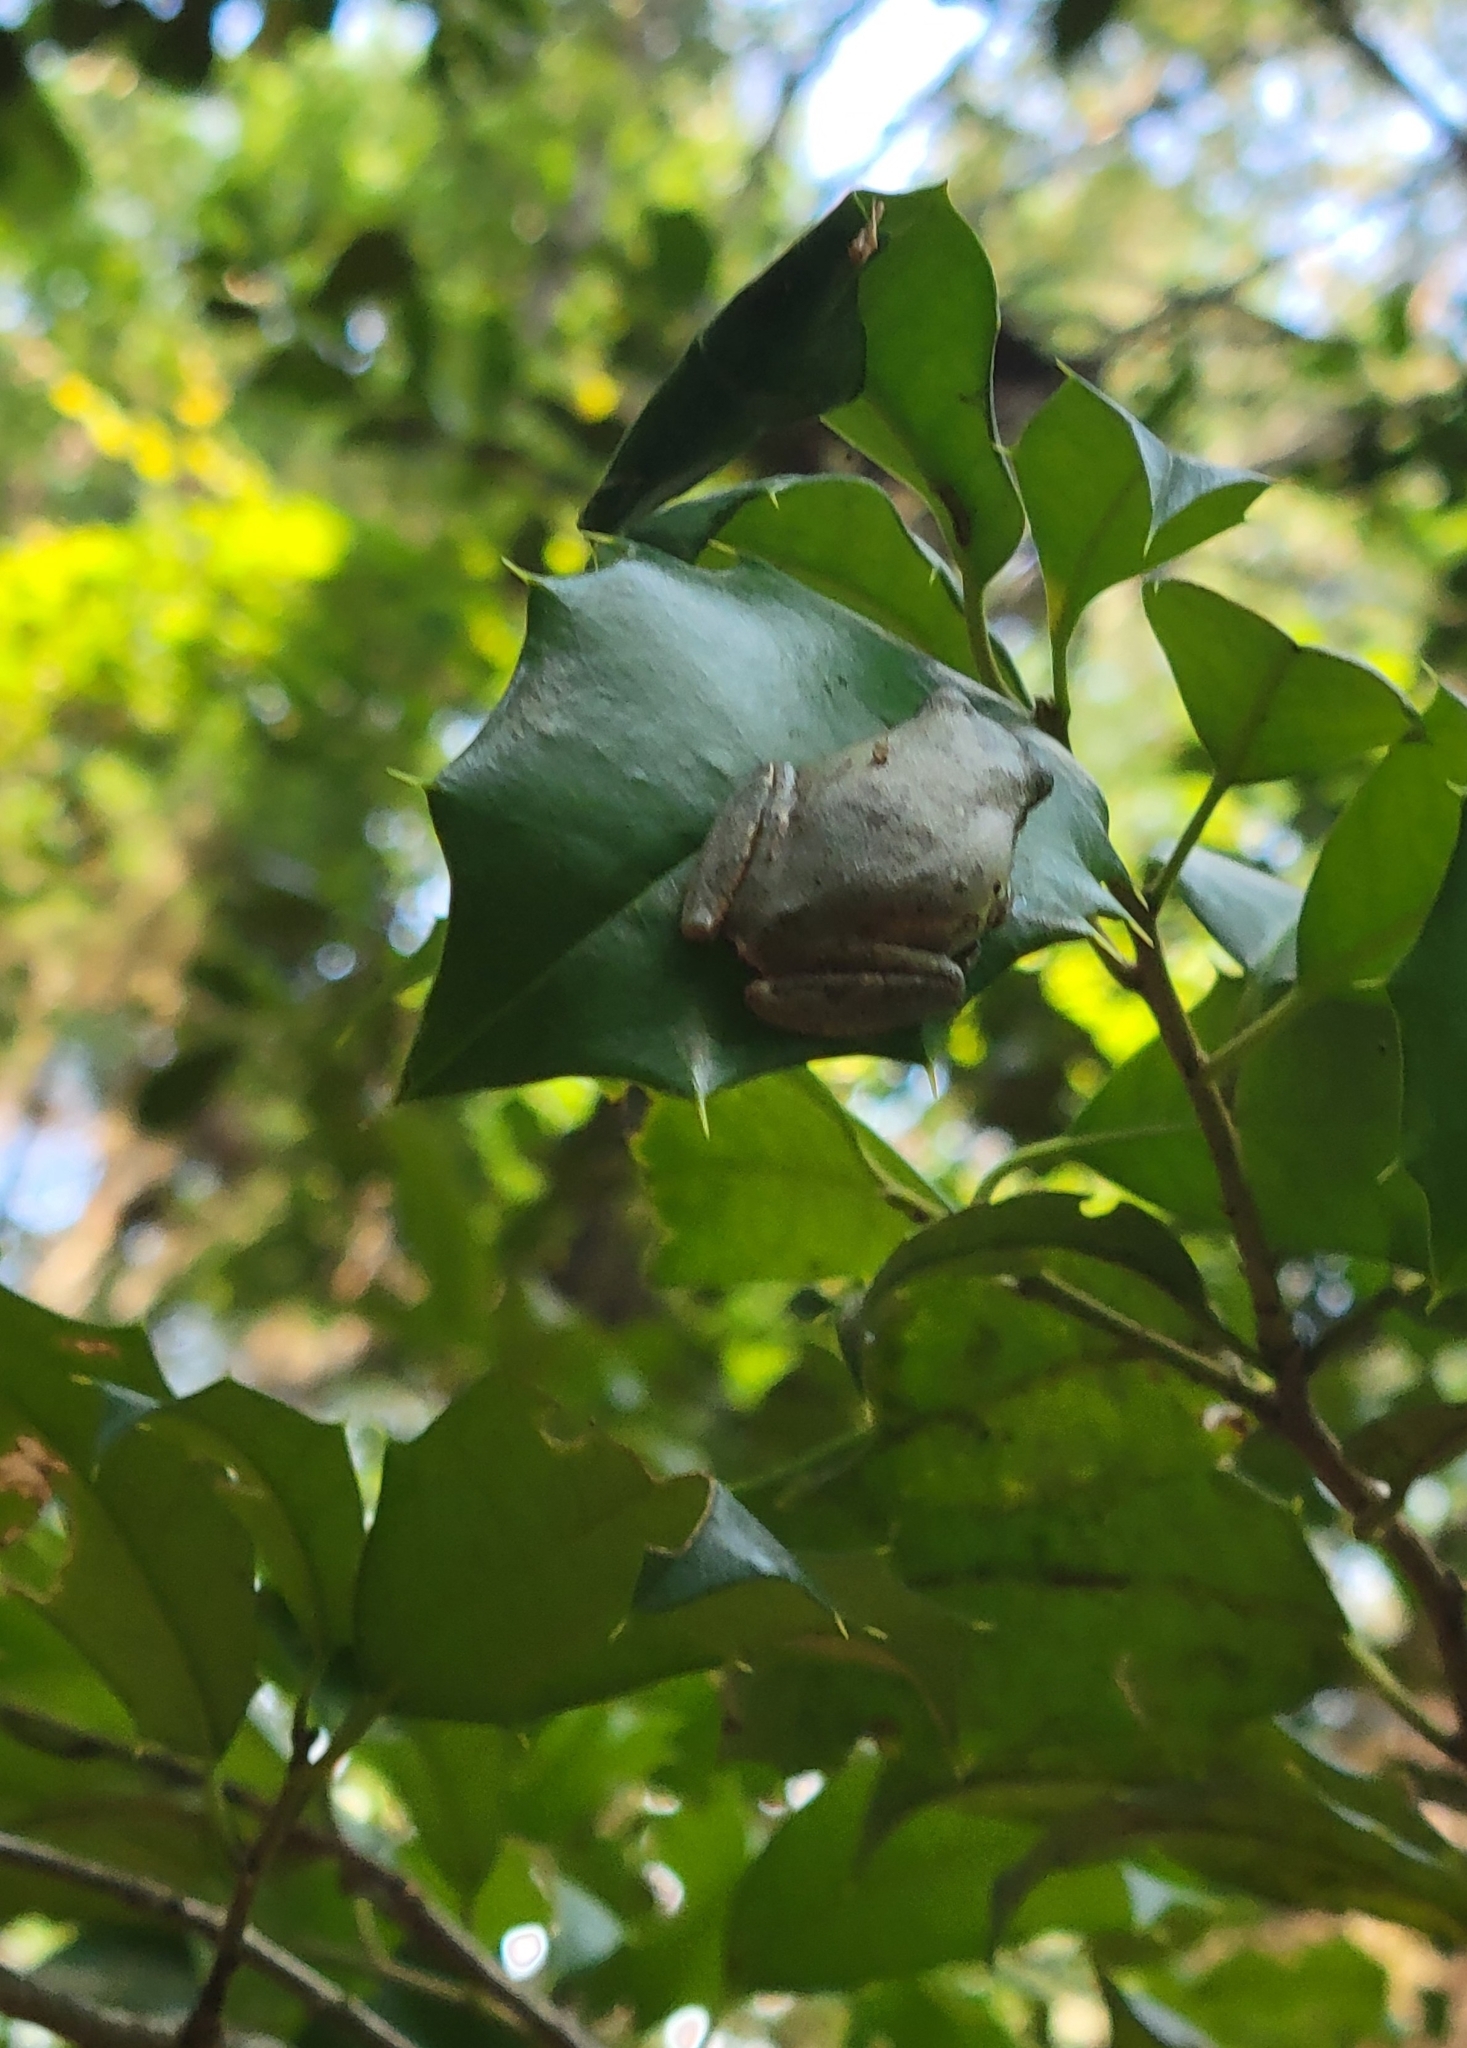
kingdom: Animalia
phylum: Chordata
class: Amphibia
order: Anura
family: Hylidae
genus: Dryophytes
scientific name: Dryophytes squirellus
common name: Squirrel treefrog
